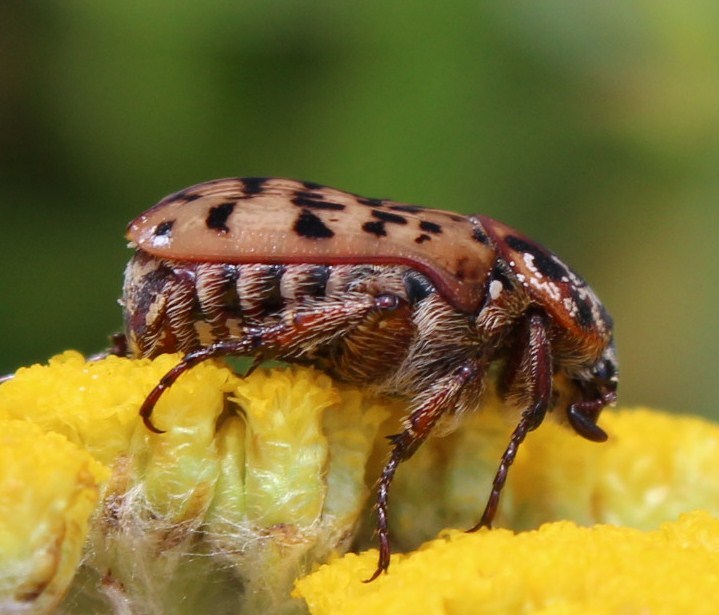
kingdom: Animalia
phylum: Arthropoda
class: Insecta
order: Coleoptera
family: Scarabaeidae
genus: Atrichelaphinis
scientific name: Atrichelaphinis tigrina
